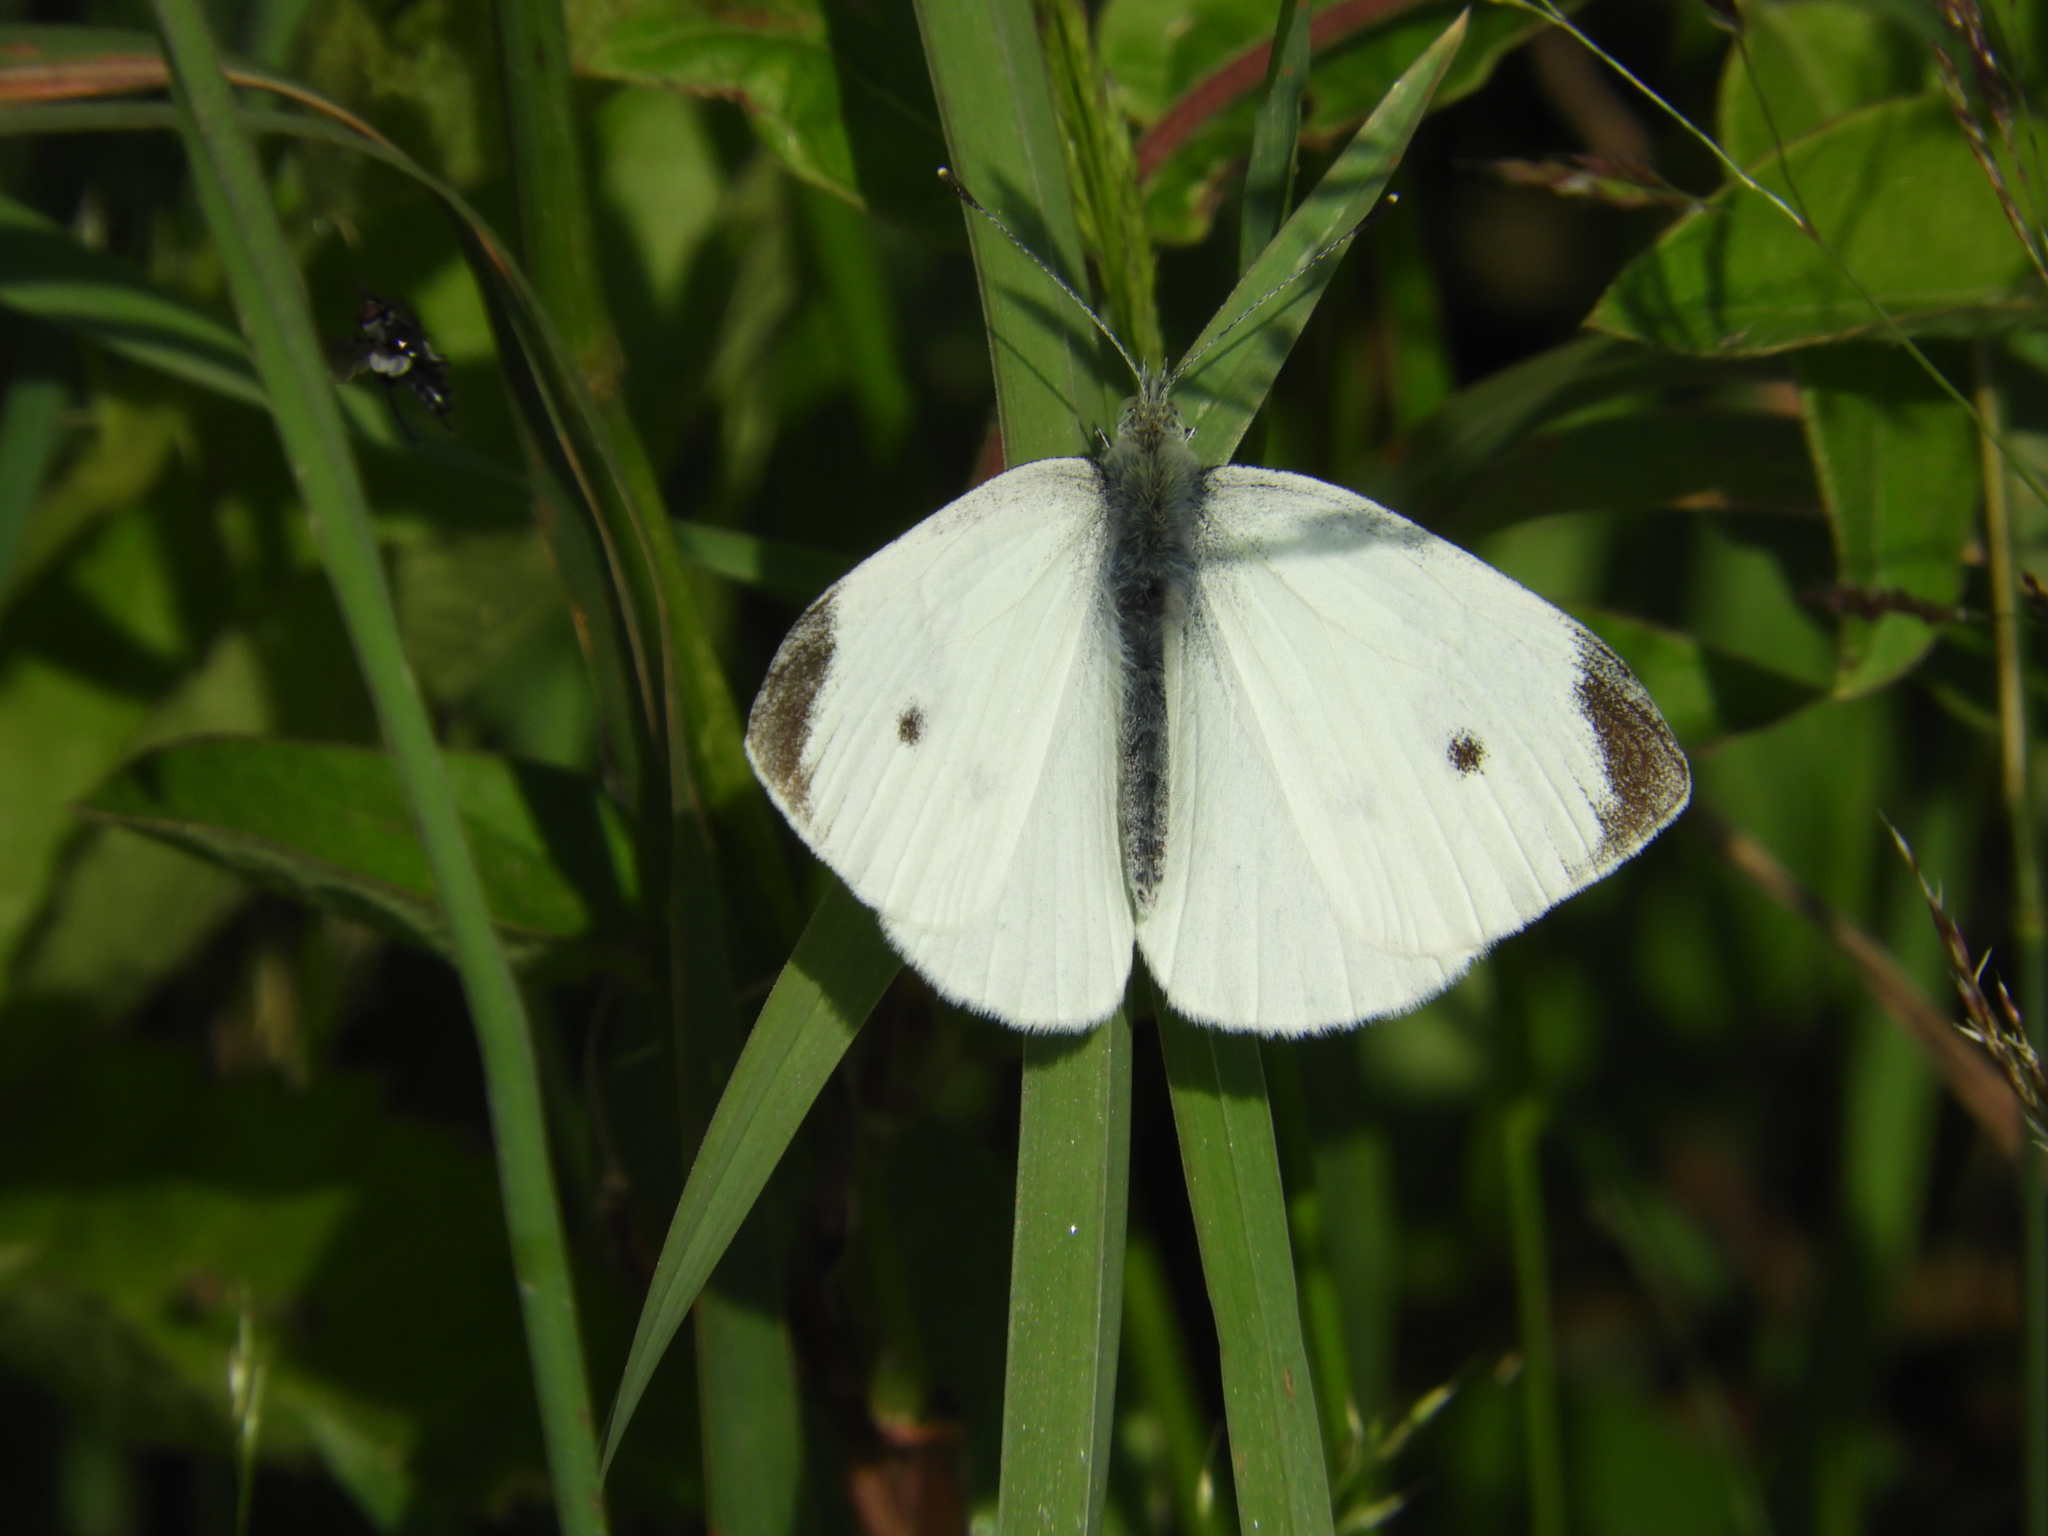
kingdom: Animalia
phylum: Arthropoda
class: Insecta
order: Lepidoptera
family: Pieridae
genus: Pieris
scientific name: Pieris rapae
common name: Small white
